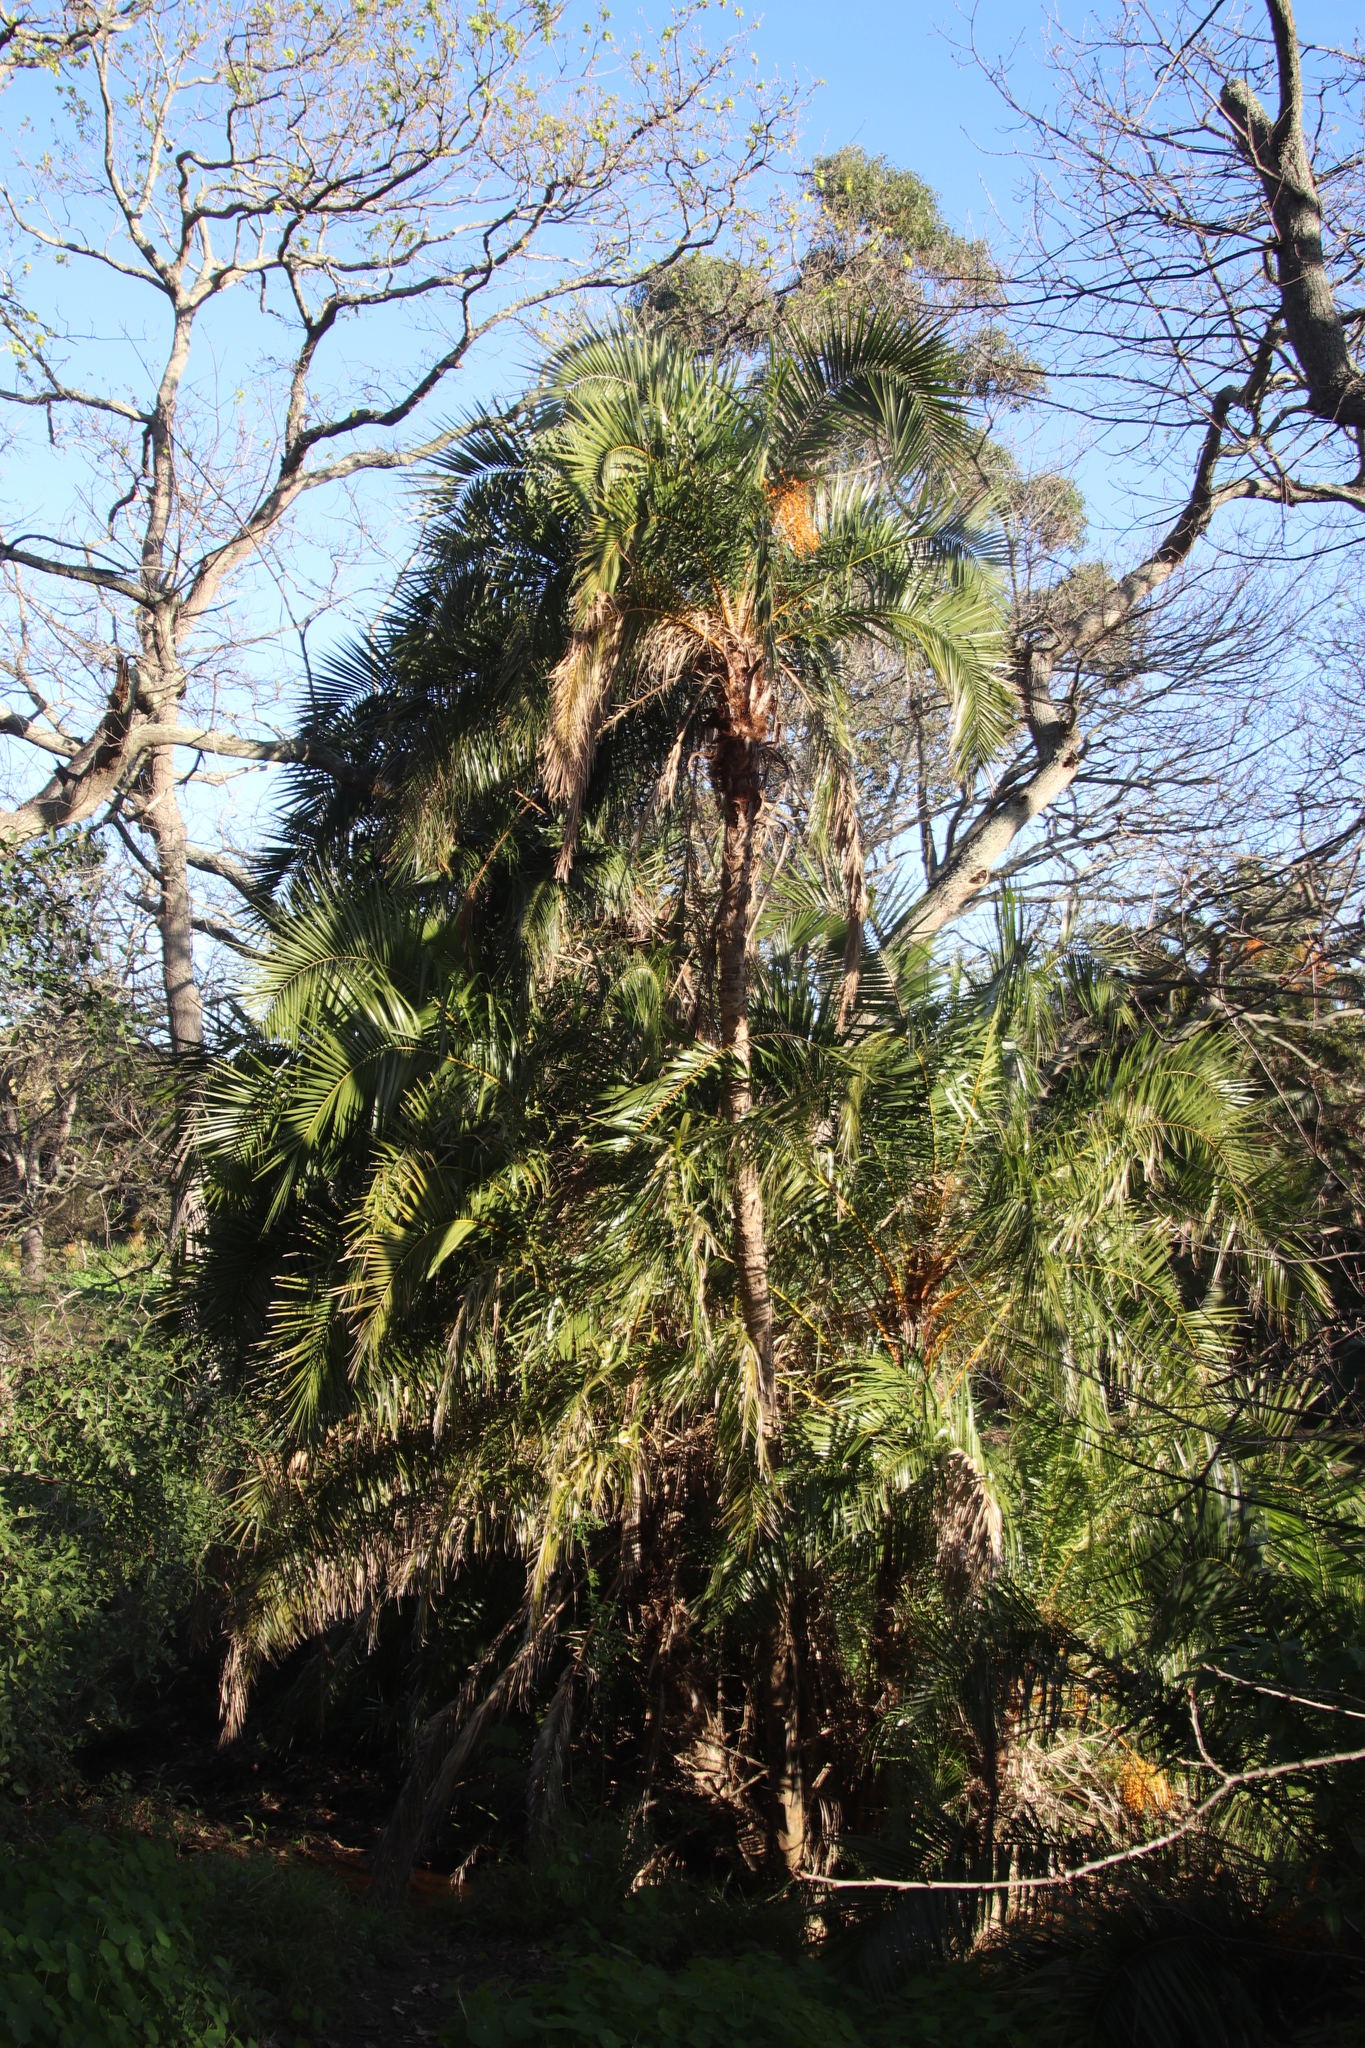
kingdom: Plantae
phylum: Tracheophyta
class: Liliopsida
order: Arecales
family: Arecaceae
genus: Phoenix
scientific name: Phoenix reclinata
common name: Senegal date palm
